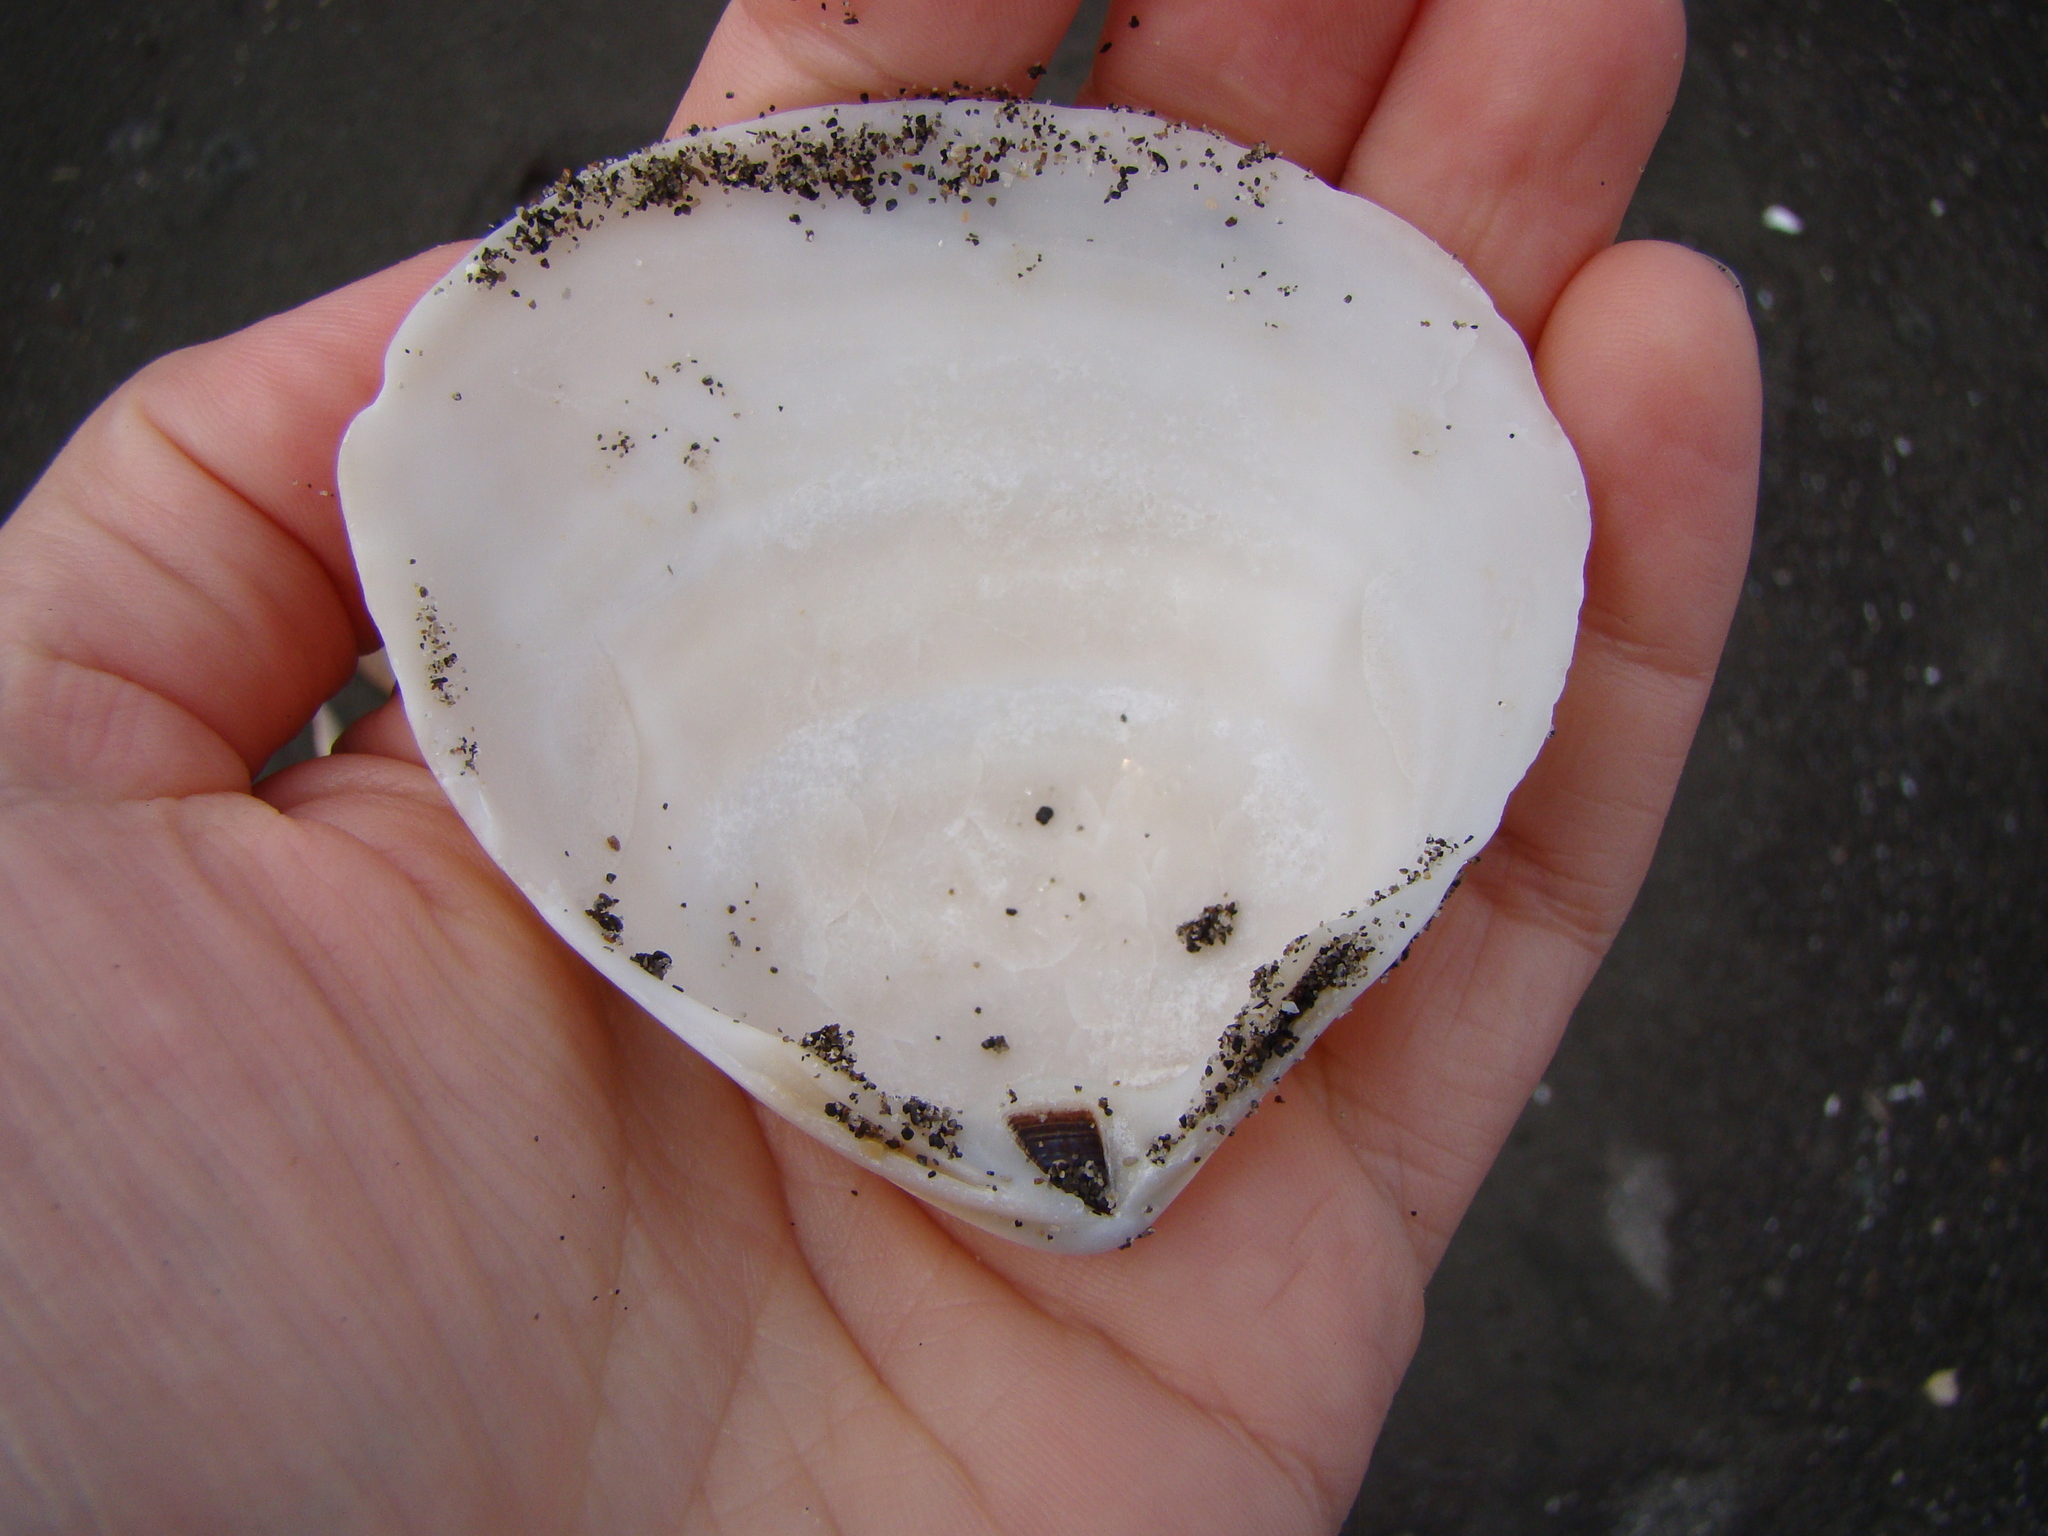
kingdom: Animalia
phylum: Mollusca
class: Bivalvia
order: Venerida
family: Mactridae
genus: Spisula
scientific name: Spisula murchisoni
